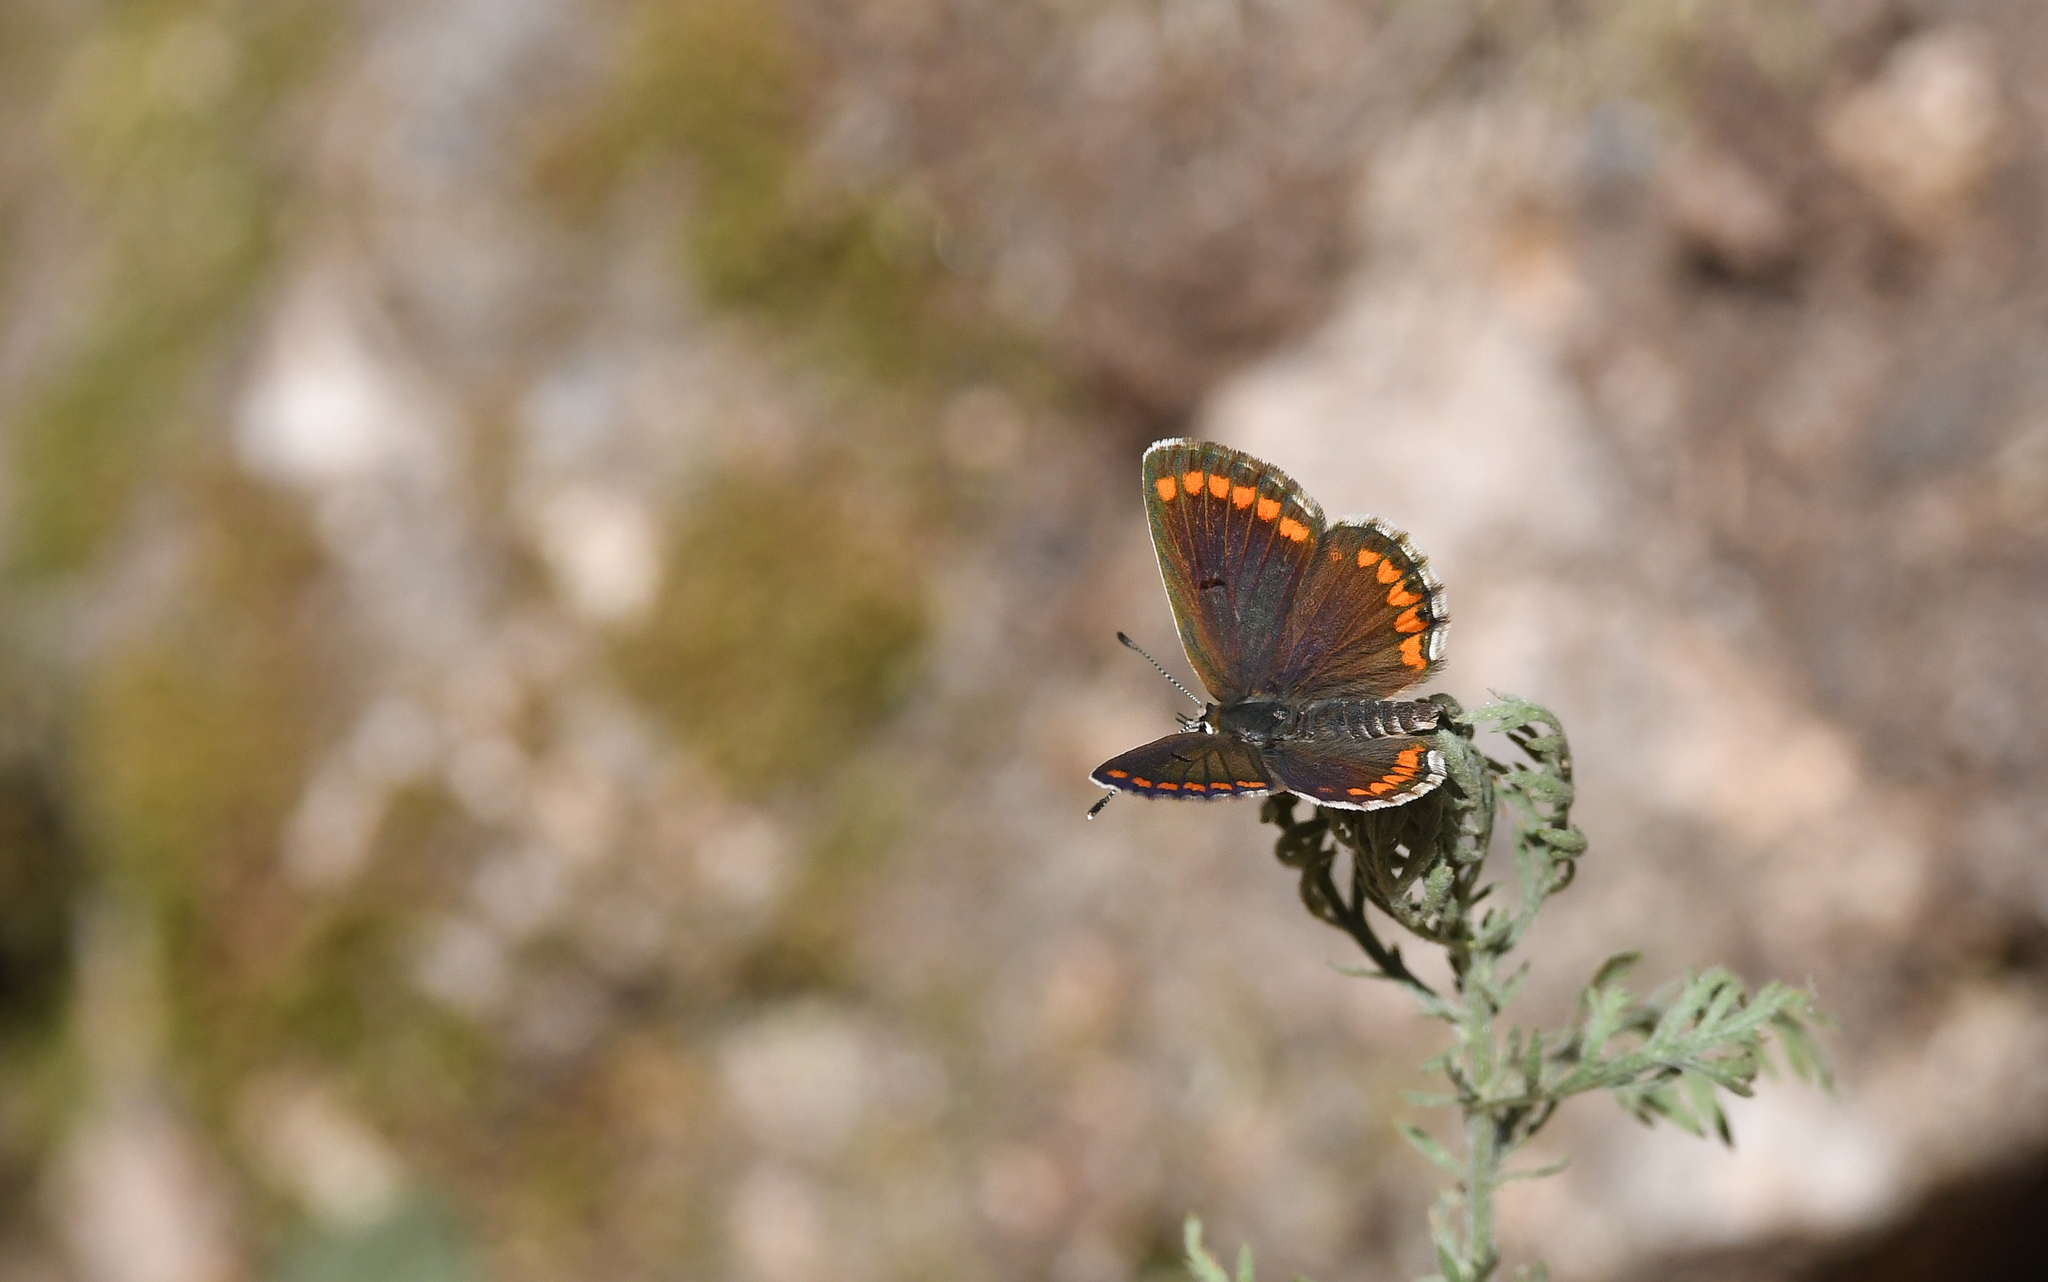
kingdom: Animalia
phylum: Arthropoda
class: Insecta
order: Lepidoptera
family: Lycaenidae
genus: Aricia
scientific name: Aricia agestis
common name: Brown argus
